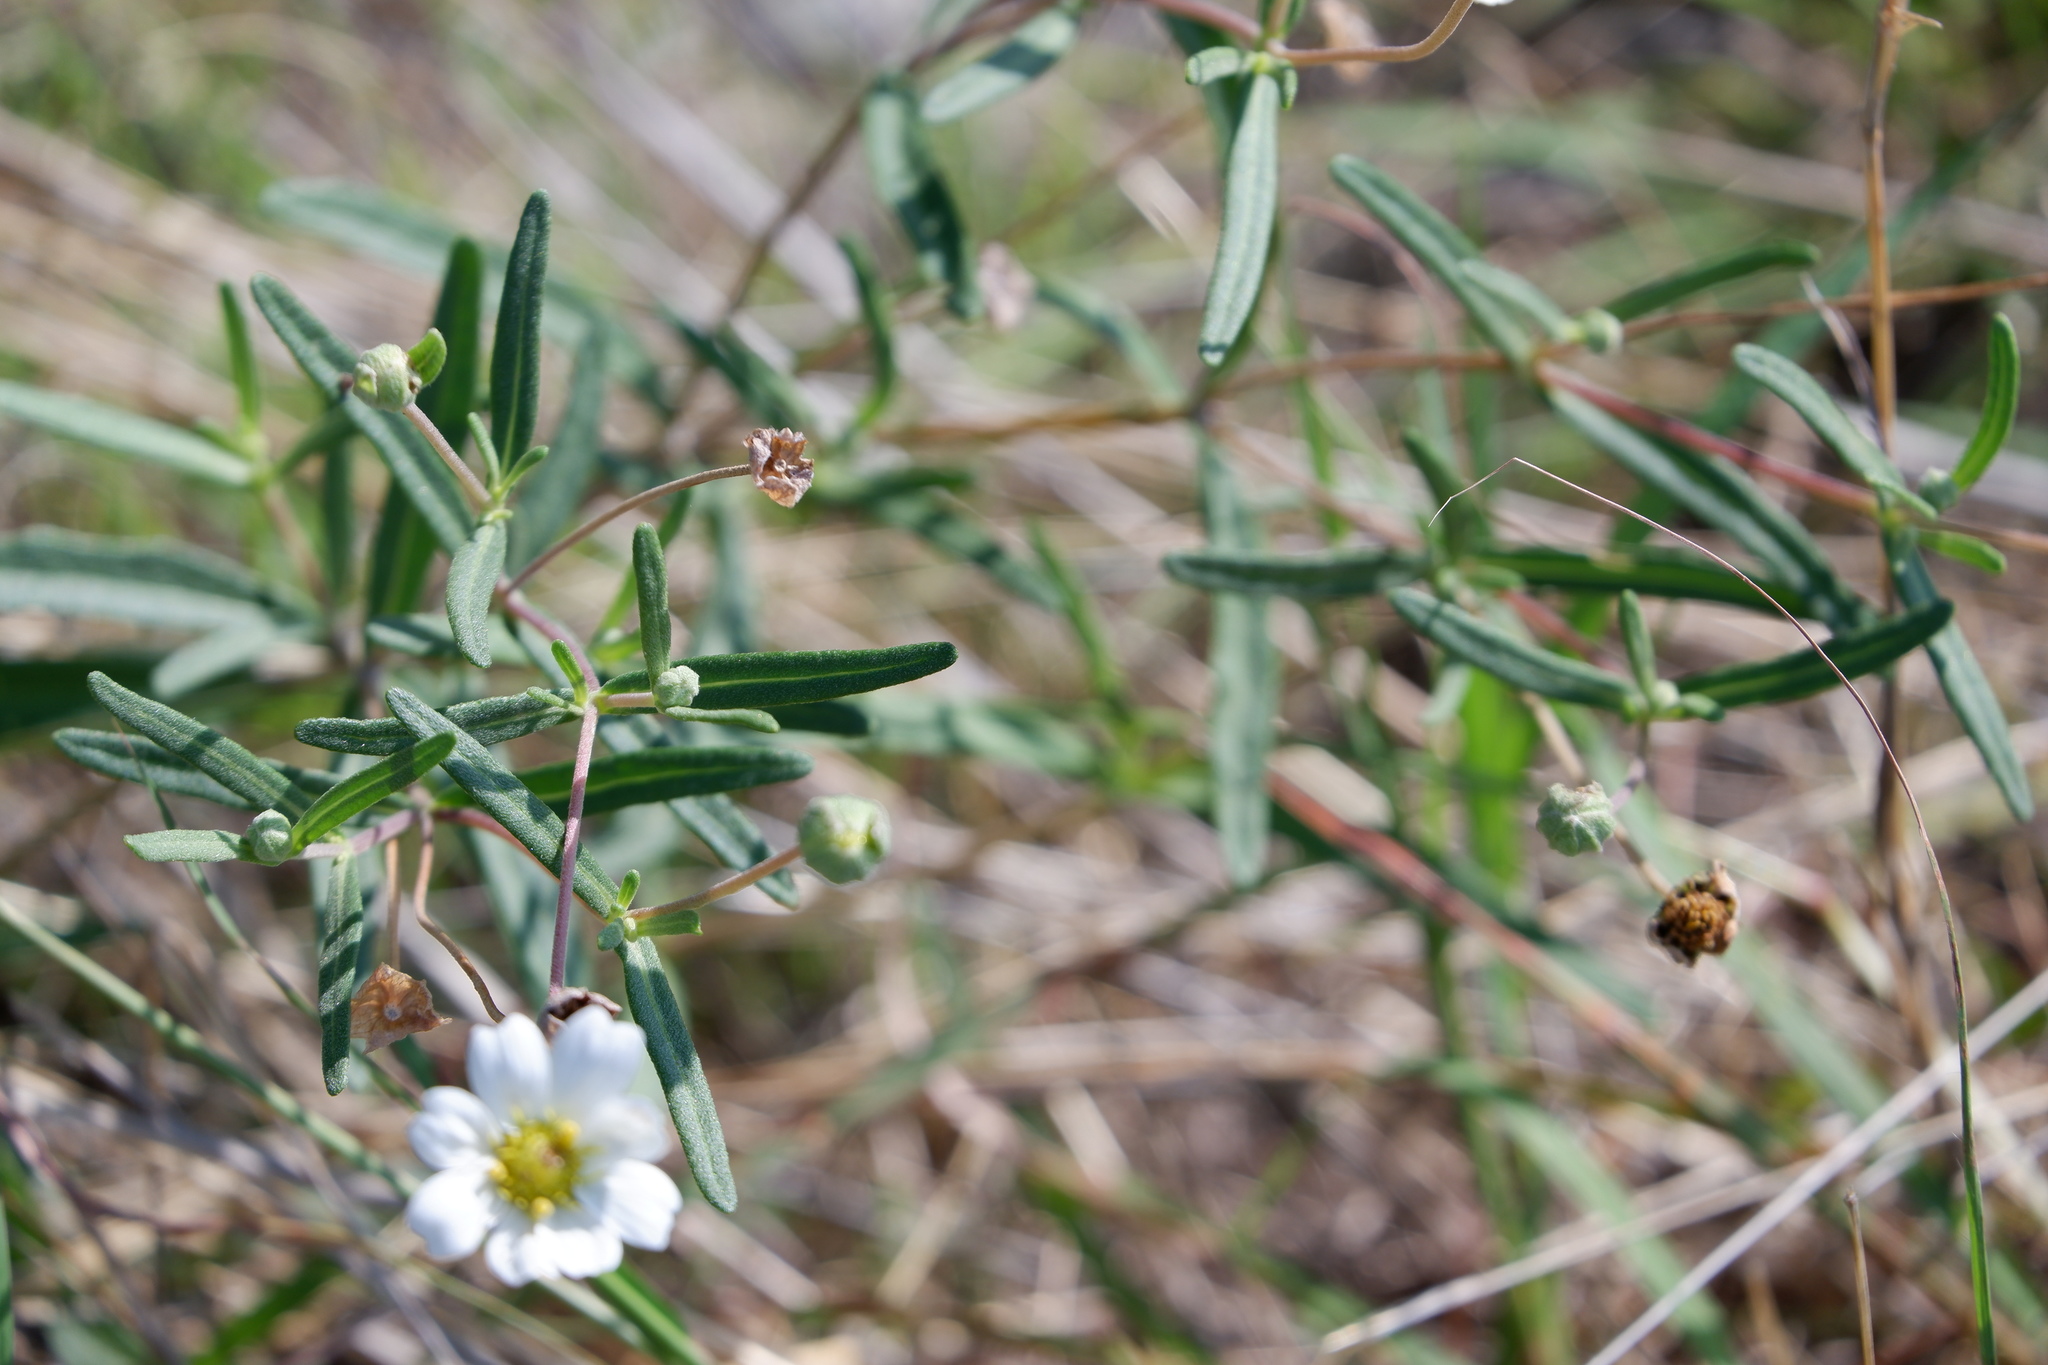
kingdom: Plantae
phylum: Tracheophyta
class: Magnoliopsida
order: Asterales
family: Asteraceae
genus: Melampodium
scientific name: Melampodium leucanthum
